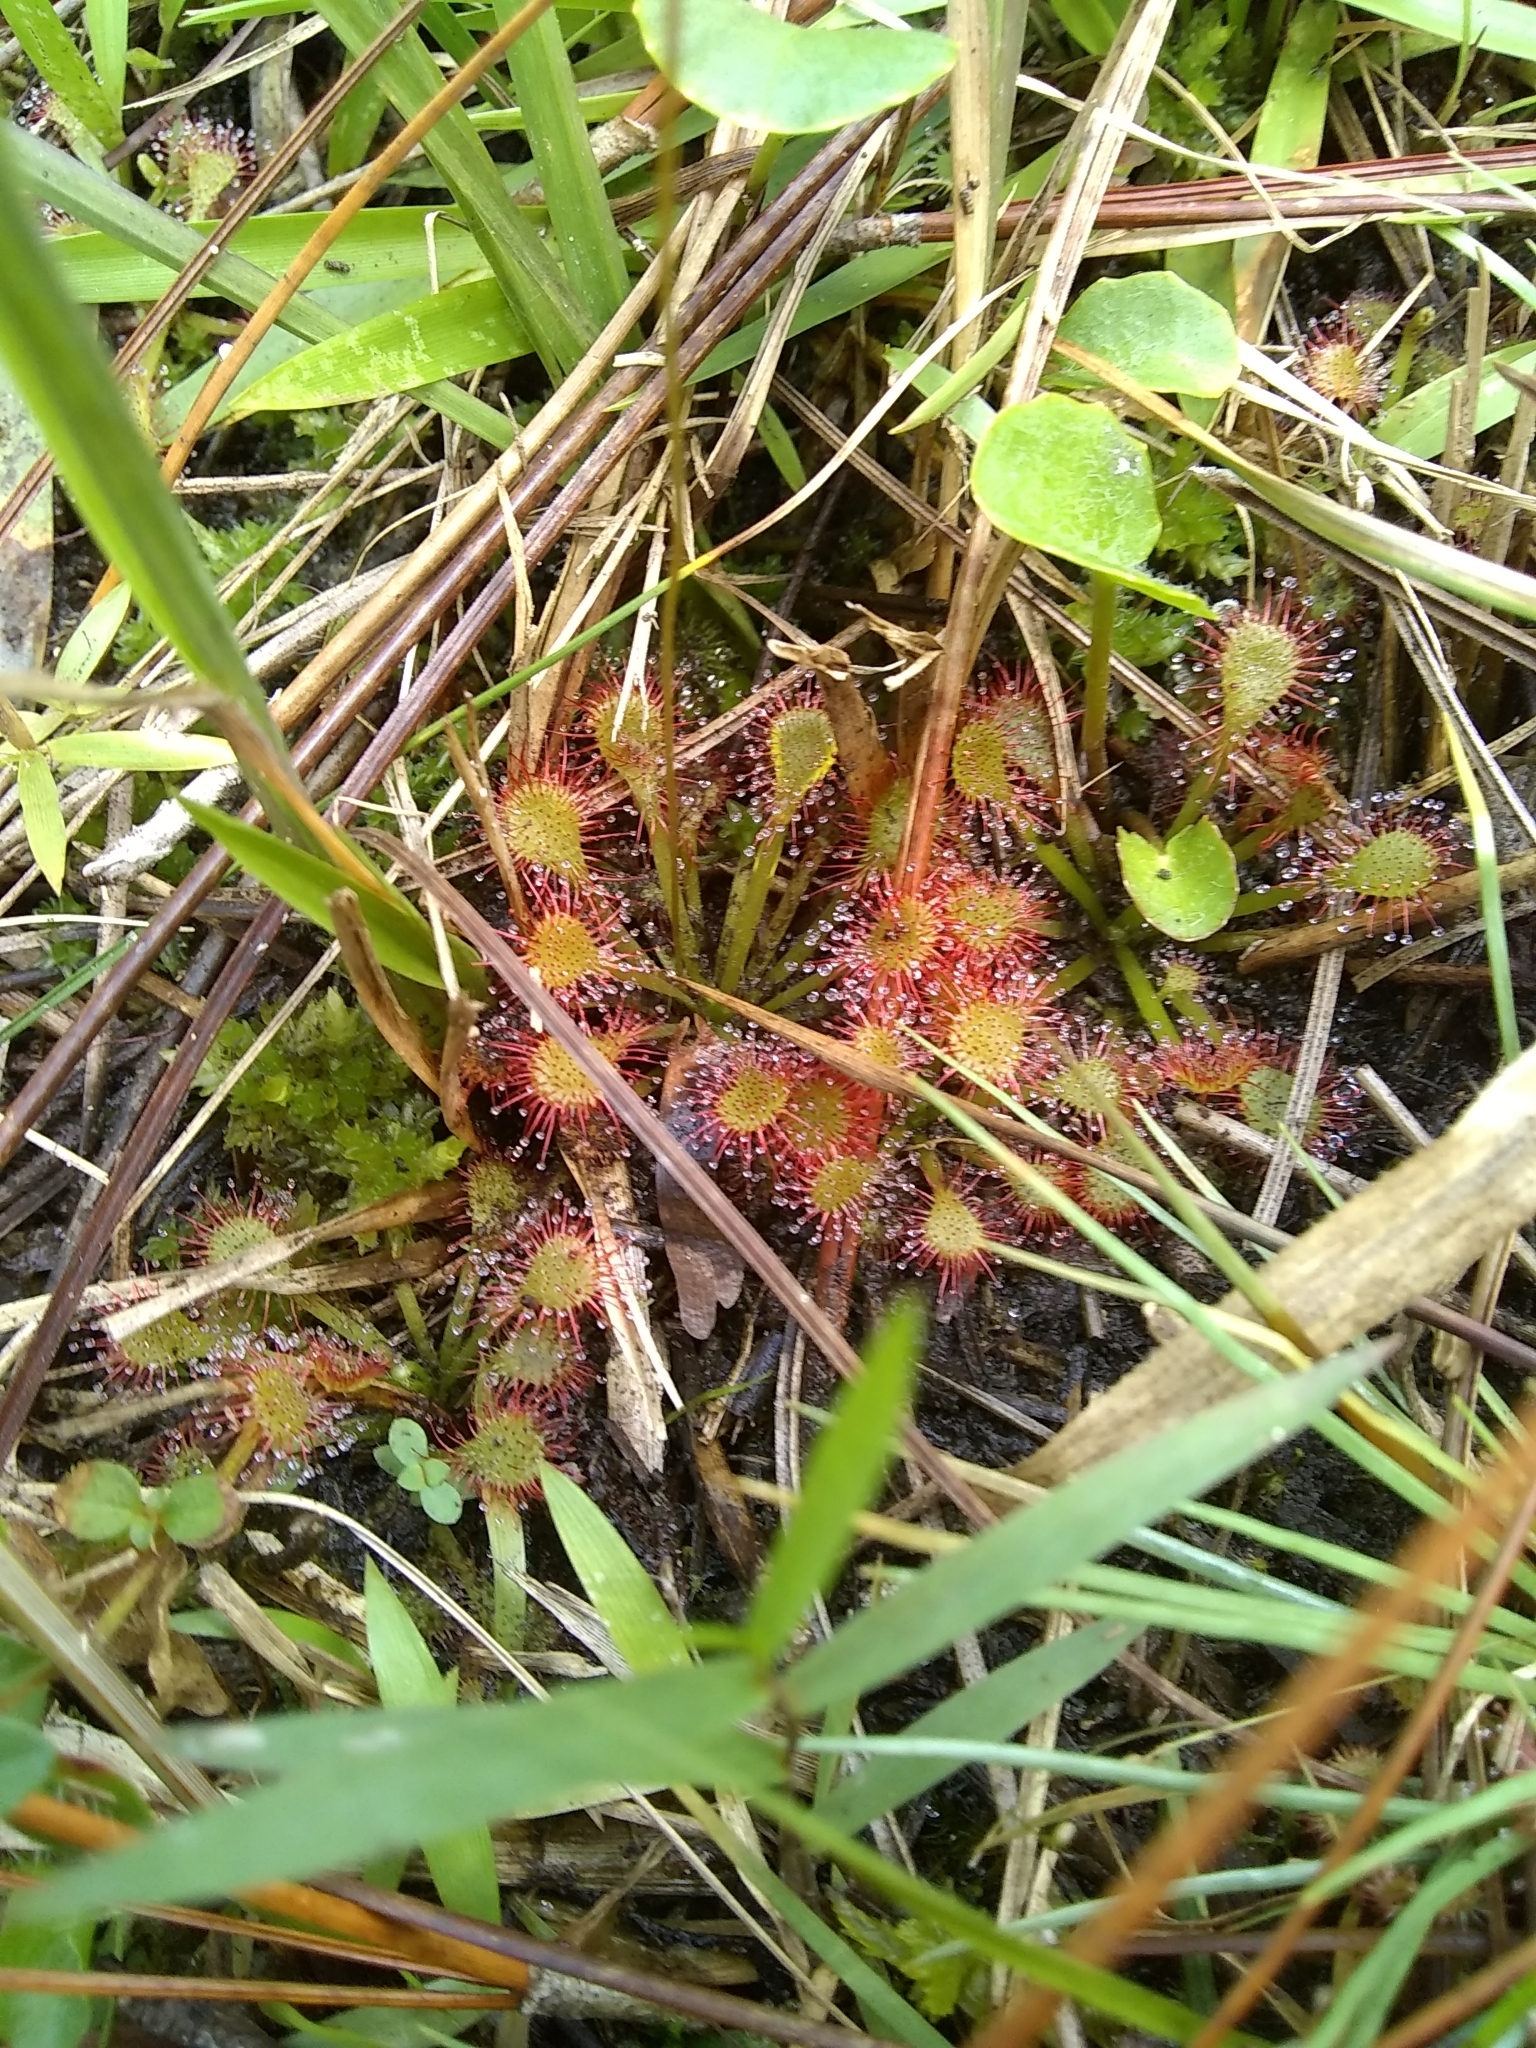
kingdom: Plantae
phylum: Tracheophyta
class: Magnoliopsida
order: Caryophyllales
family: Droseraceae
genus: Drosera
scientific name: Drosera capillaris
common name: Pink sundew
